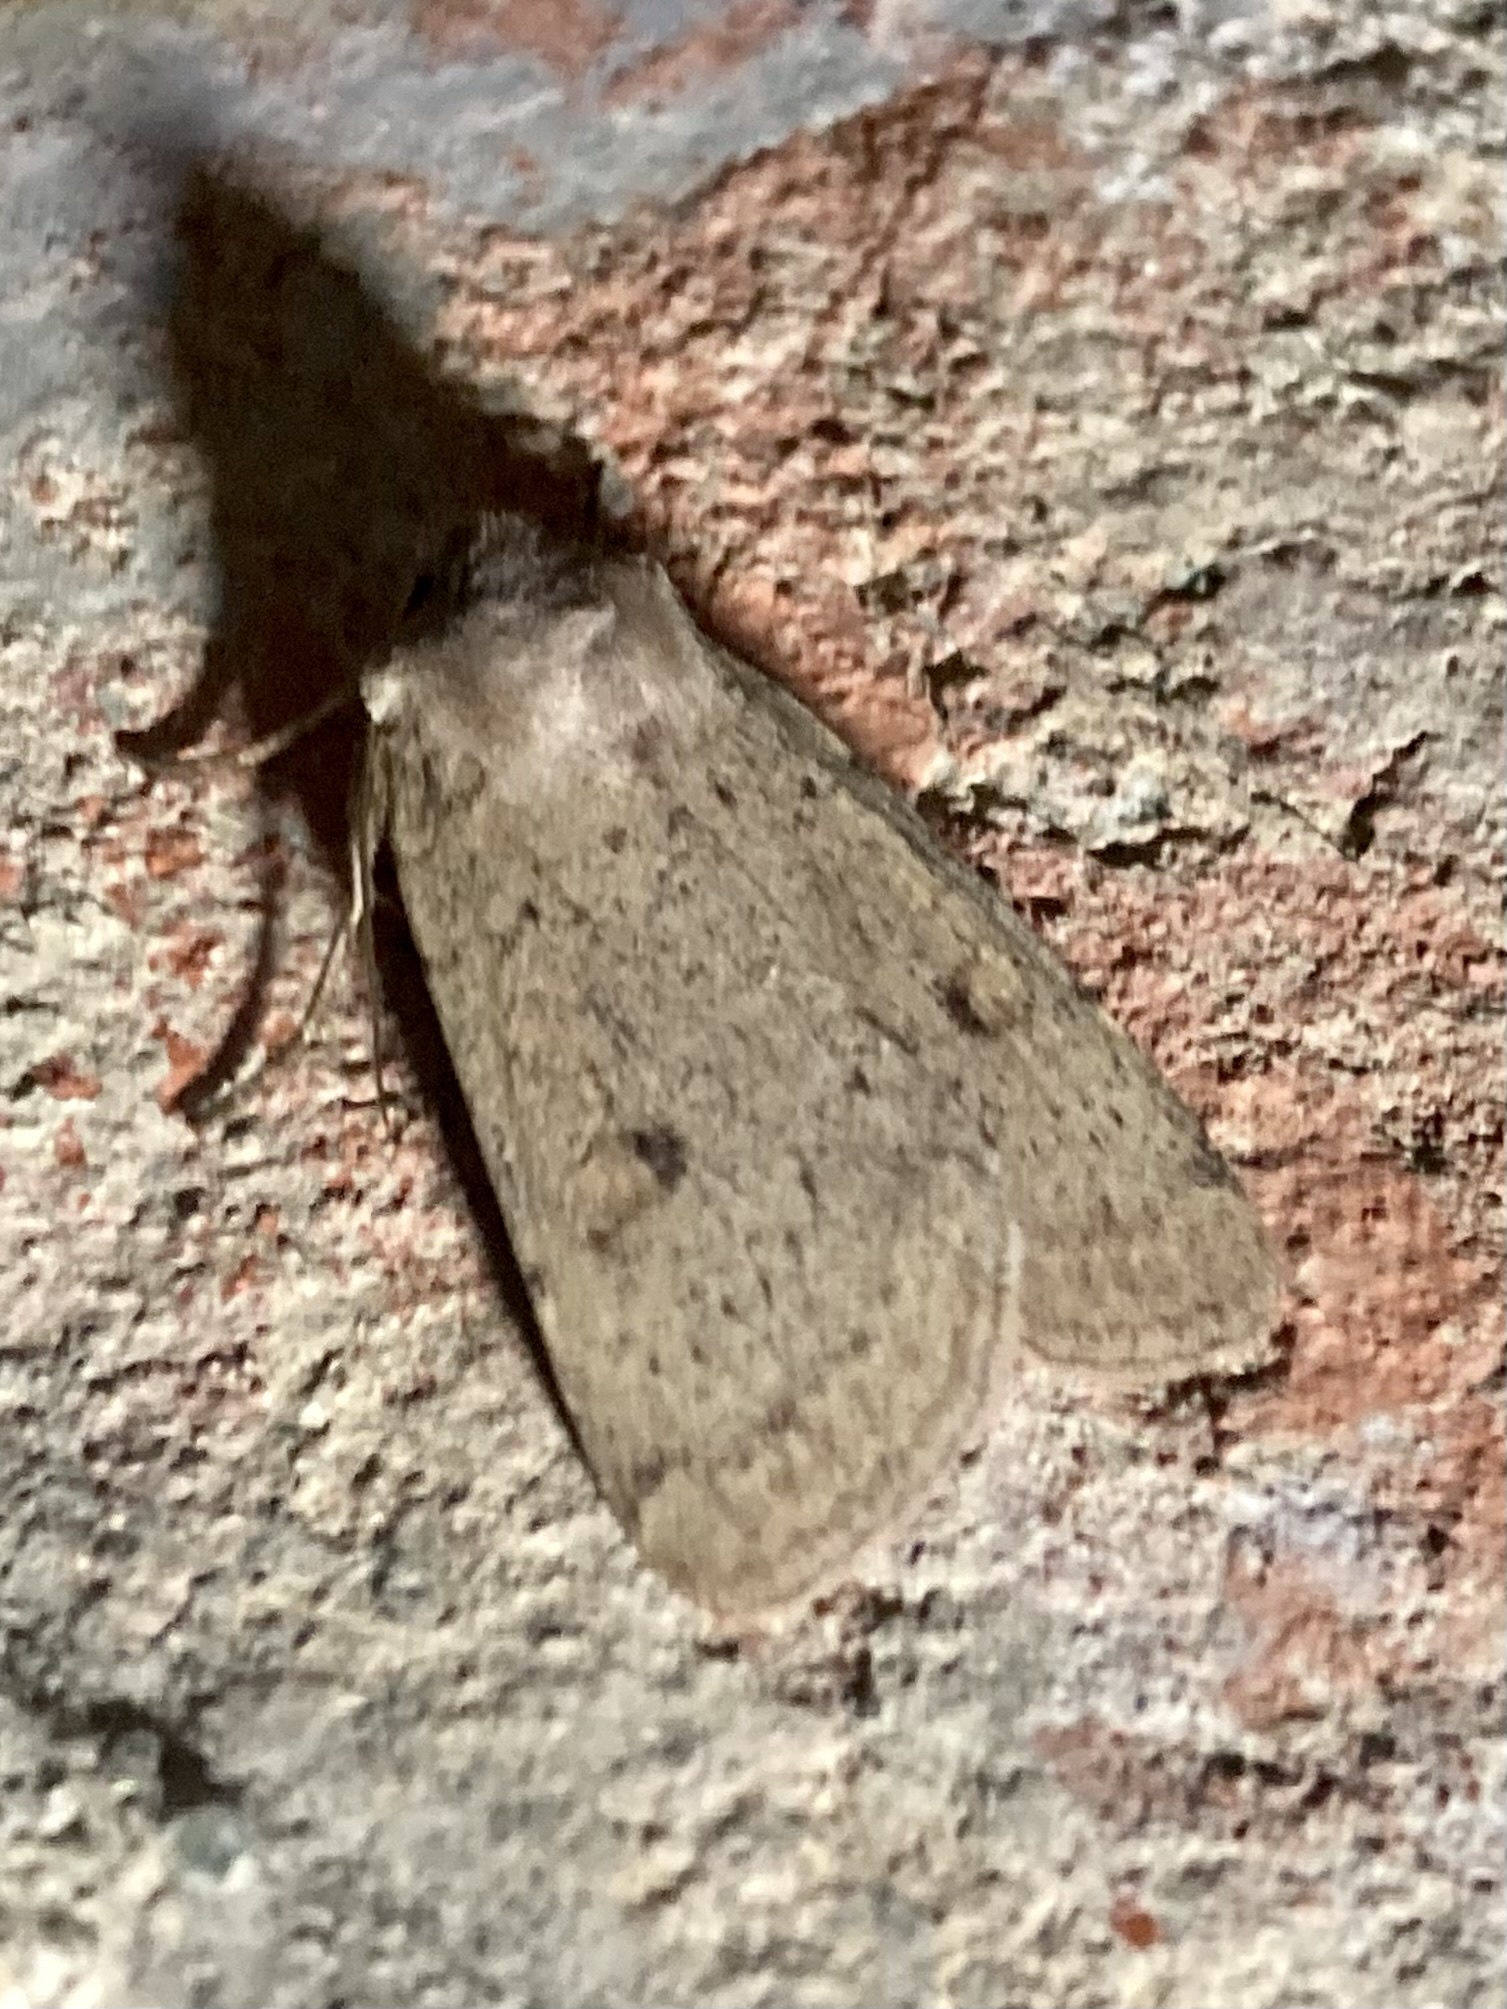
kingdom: Animalia
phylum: Arthropoda
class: Insecta
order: Lepidoptera
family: Noctuidae
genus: Xestia
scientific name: Xestia castanea
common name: Neglected rustic
